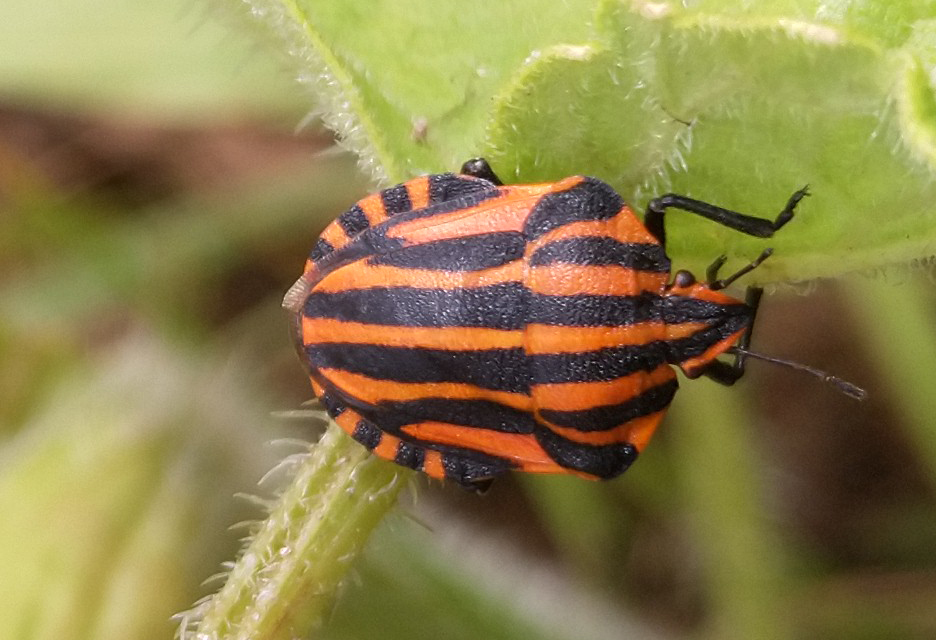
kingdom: Animalia
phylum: Arthropoda
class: Insecta
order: Hemiptera
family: Pentatomidae
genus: Graphosoma
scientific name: Graphosoma italicum
